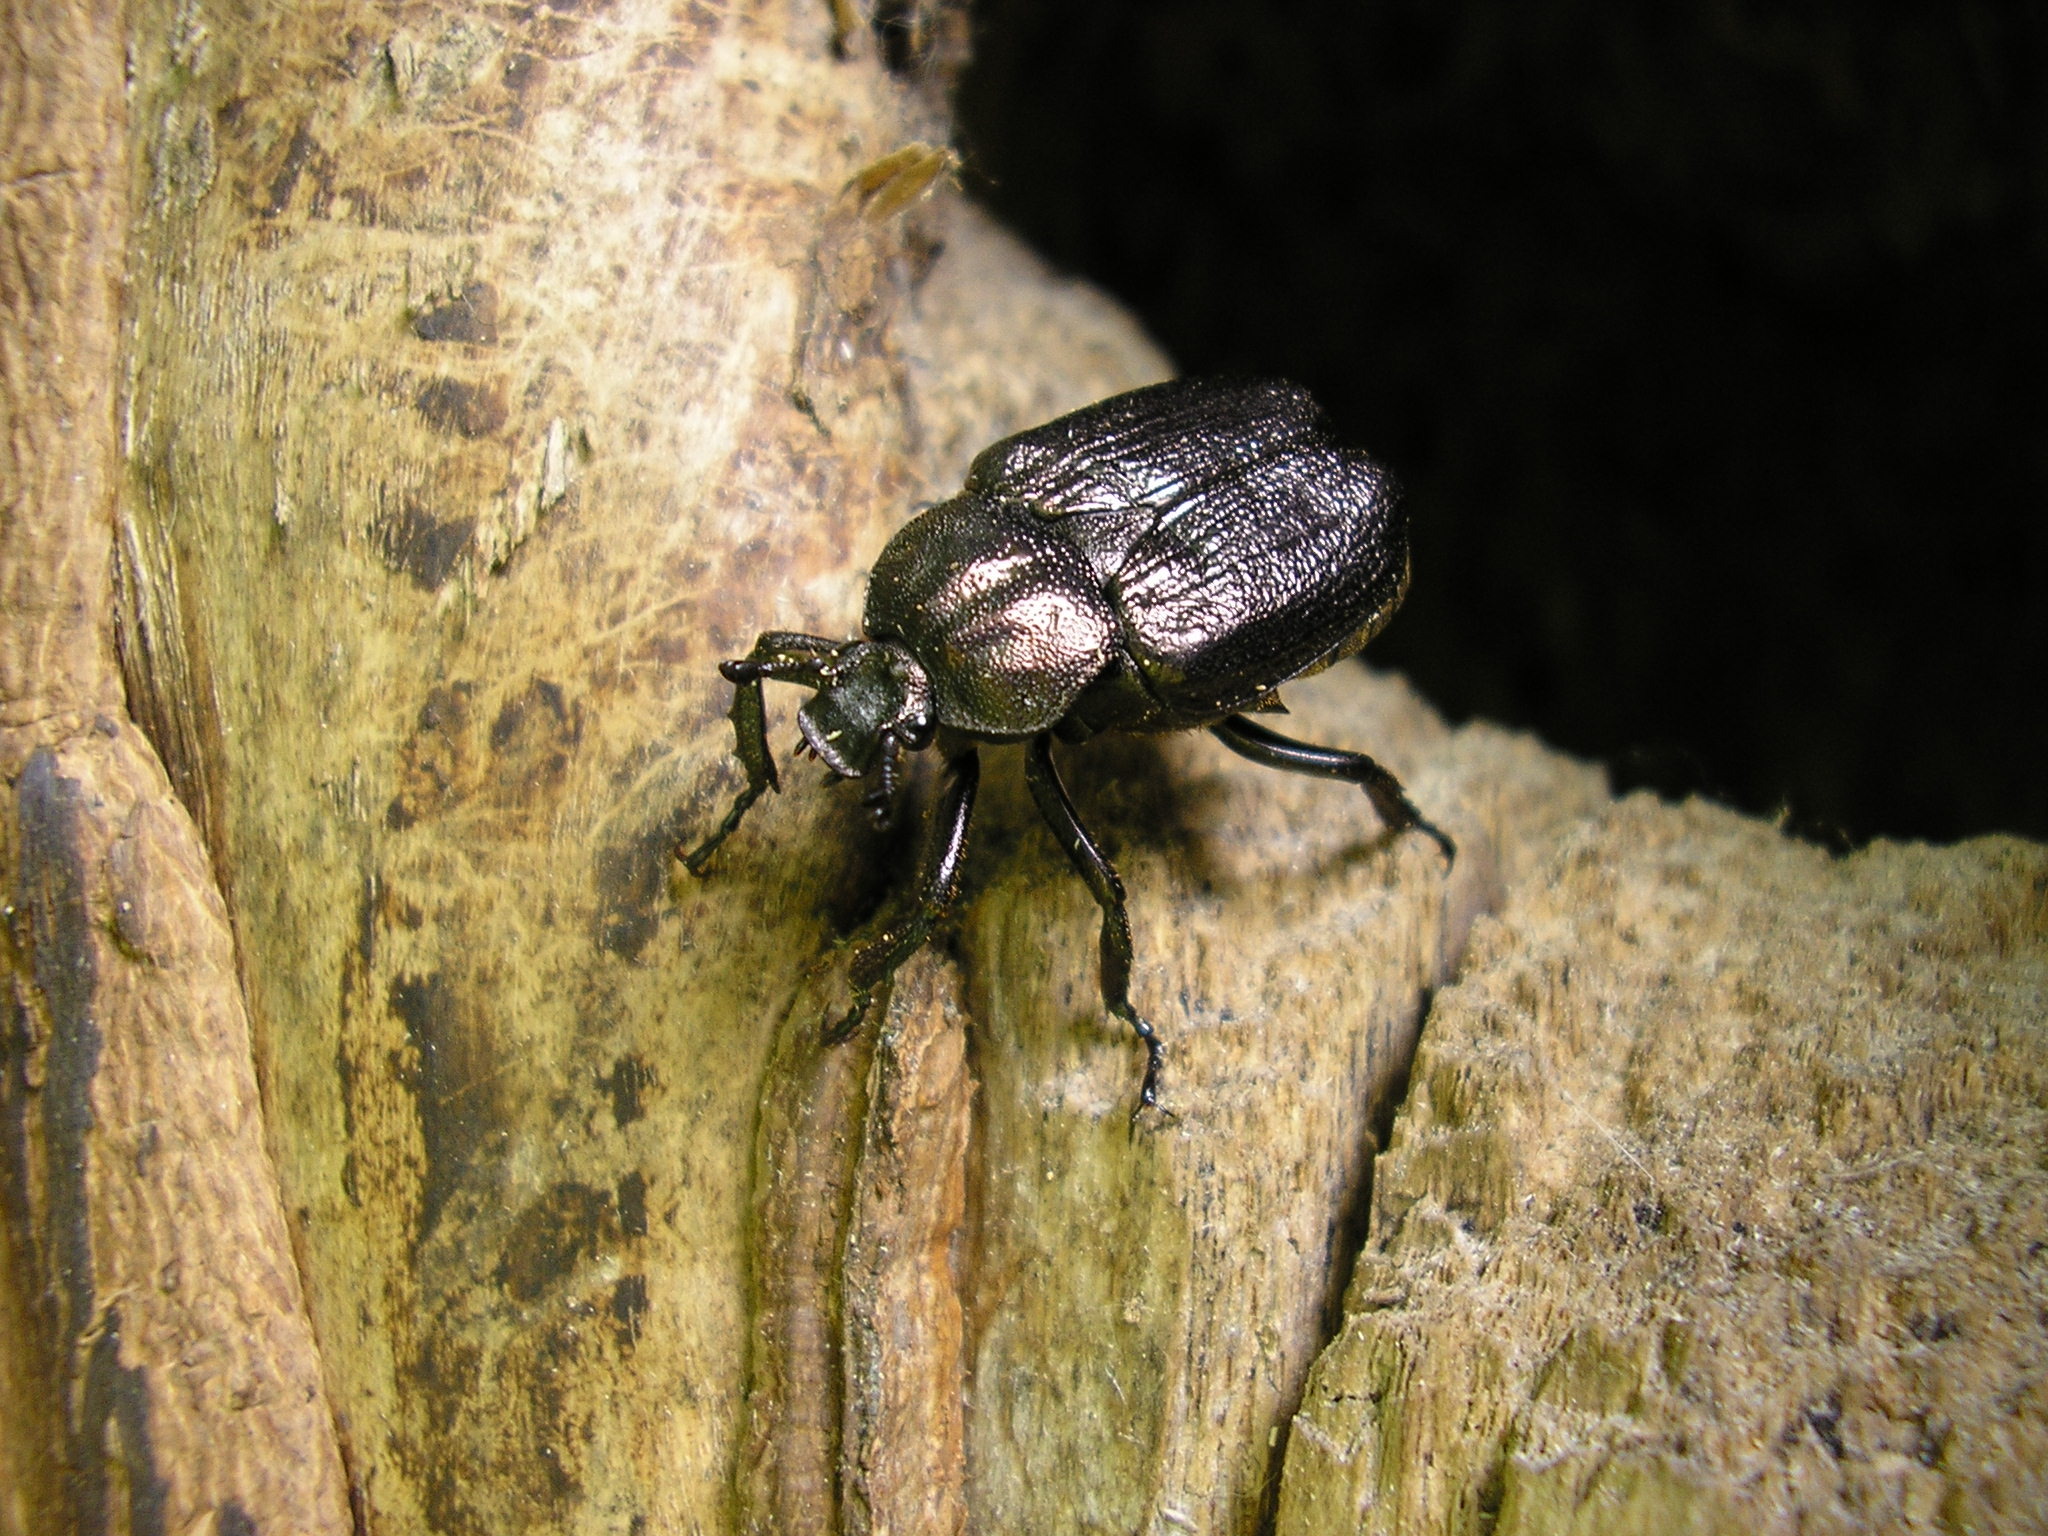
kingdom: Animalia
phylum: Arthropoda
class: Insecta
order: Coleoptera
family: Scarabaeidae
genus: Osmoderma
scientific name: Osmoderma scabra
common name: Rough hermit beetle
